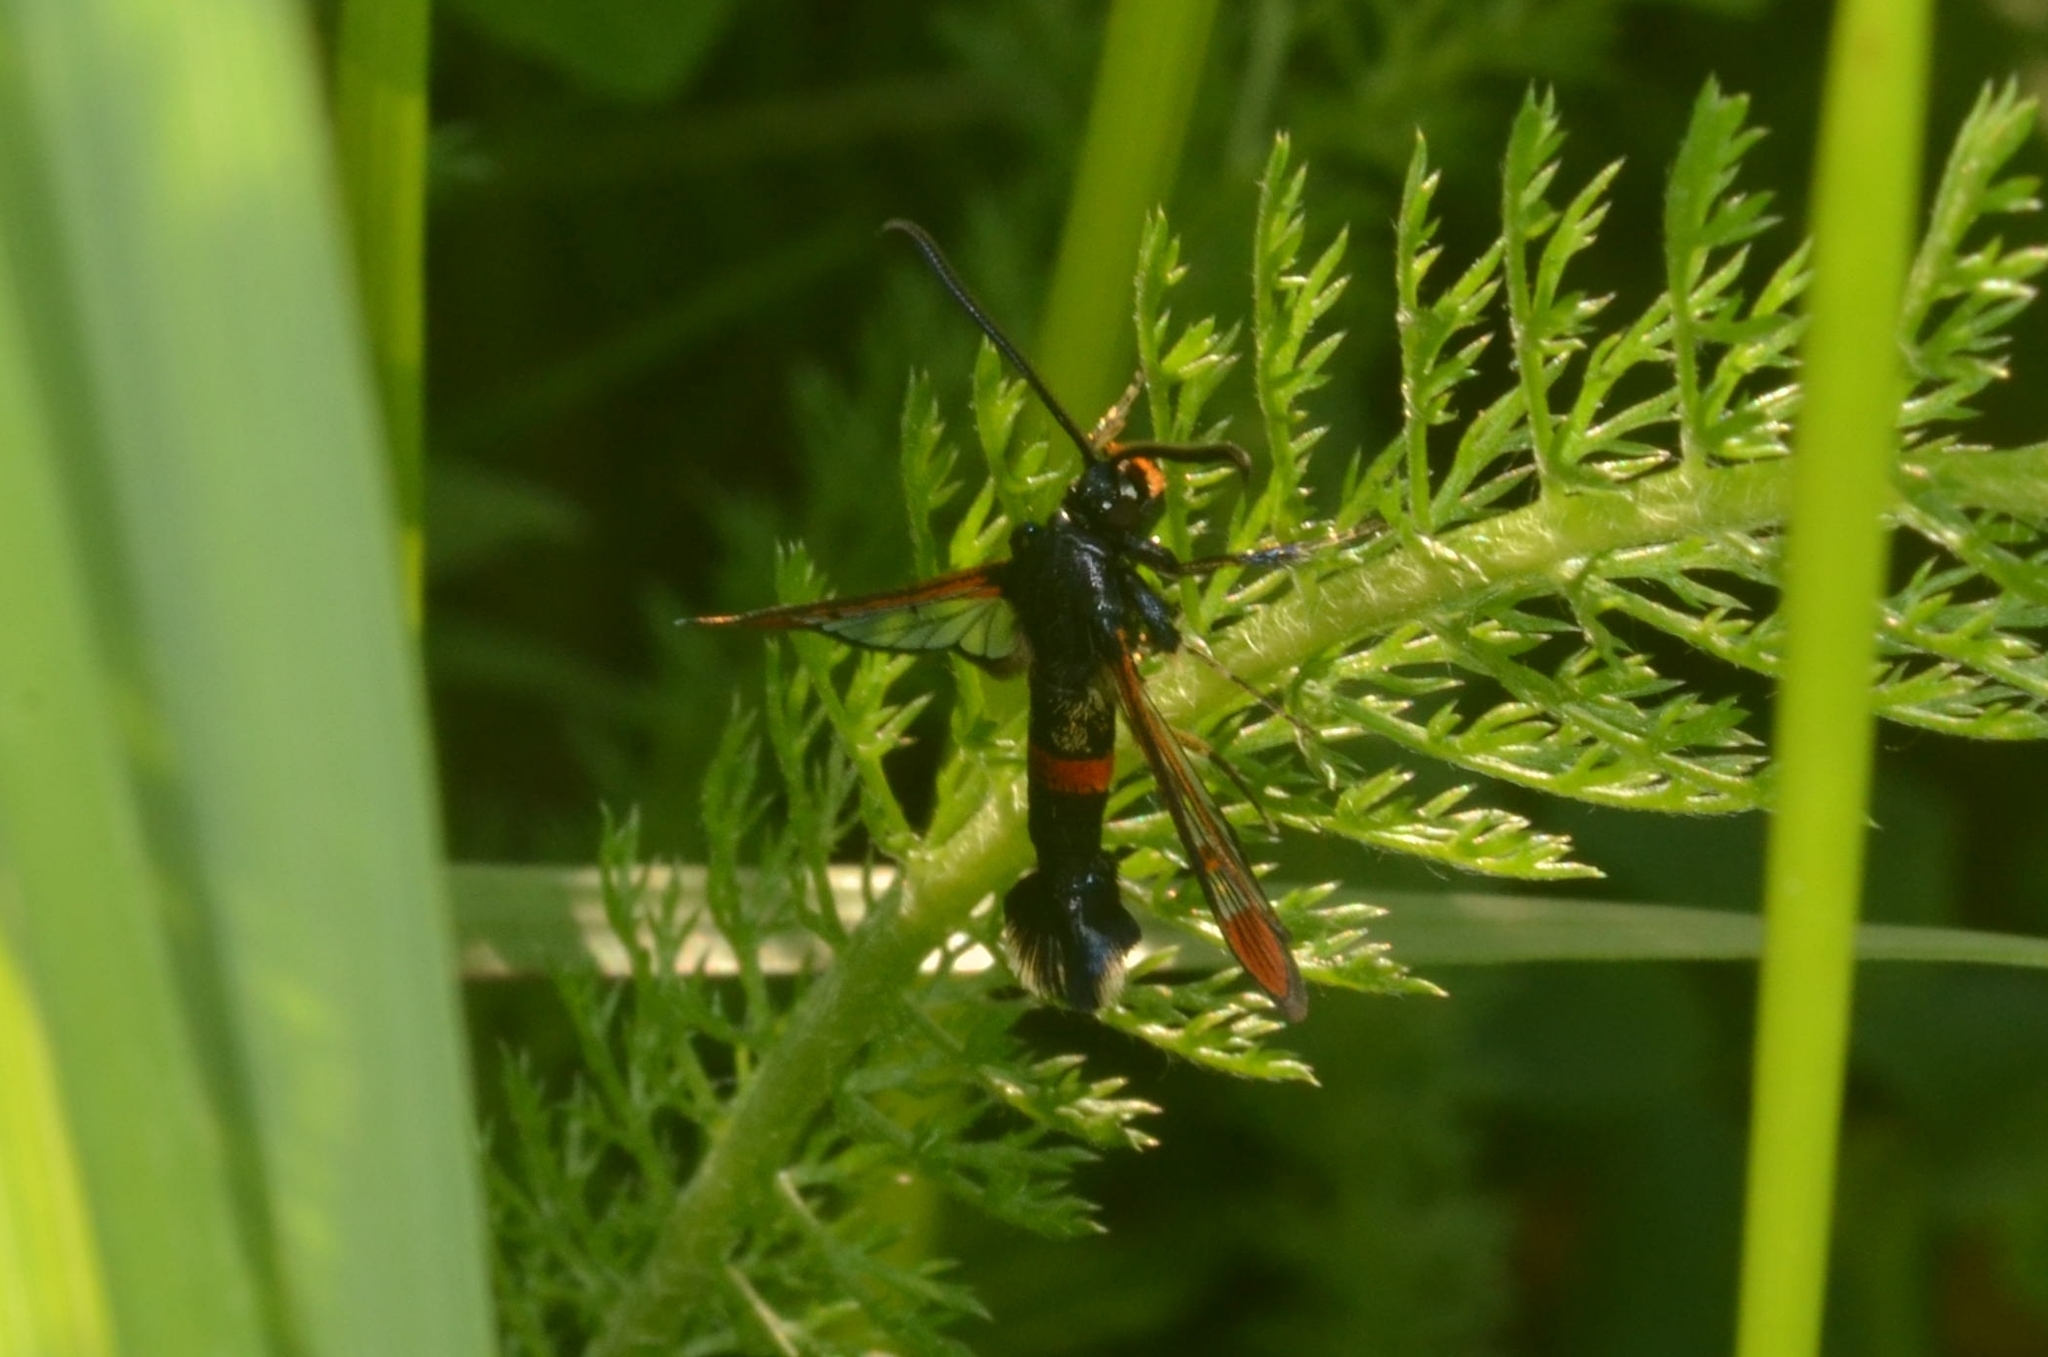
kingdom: Animalia
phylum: Arthropoda
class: Insecta
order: Lepidoptera
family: Sesiidae
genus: Synanthedon
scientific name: Synanthedon formicaeformis
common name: Red-tipped clearwing
